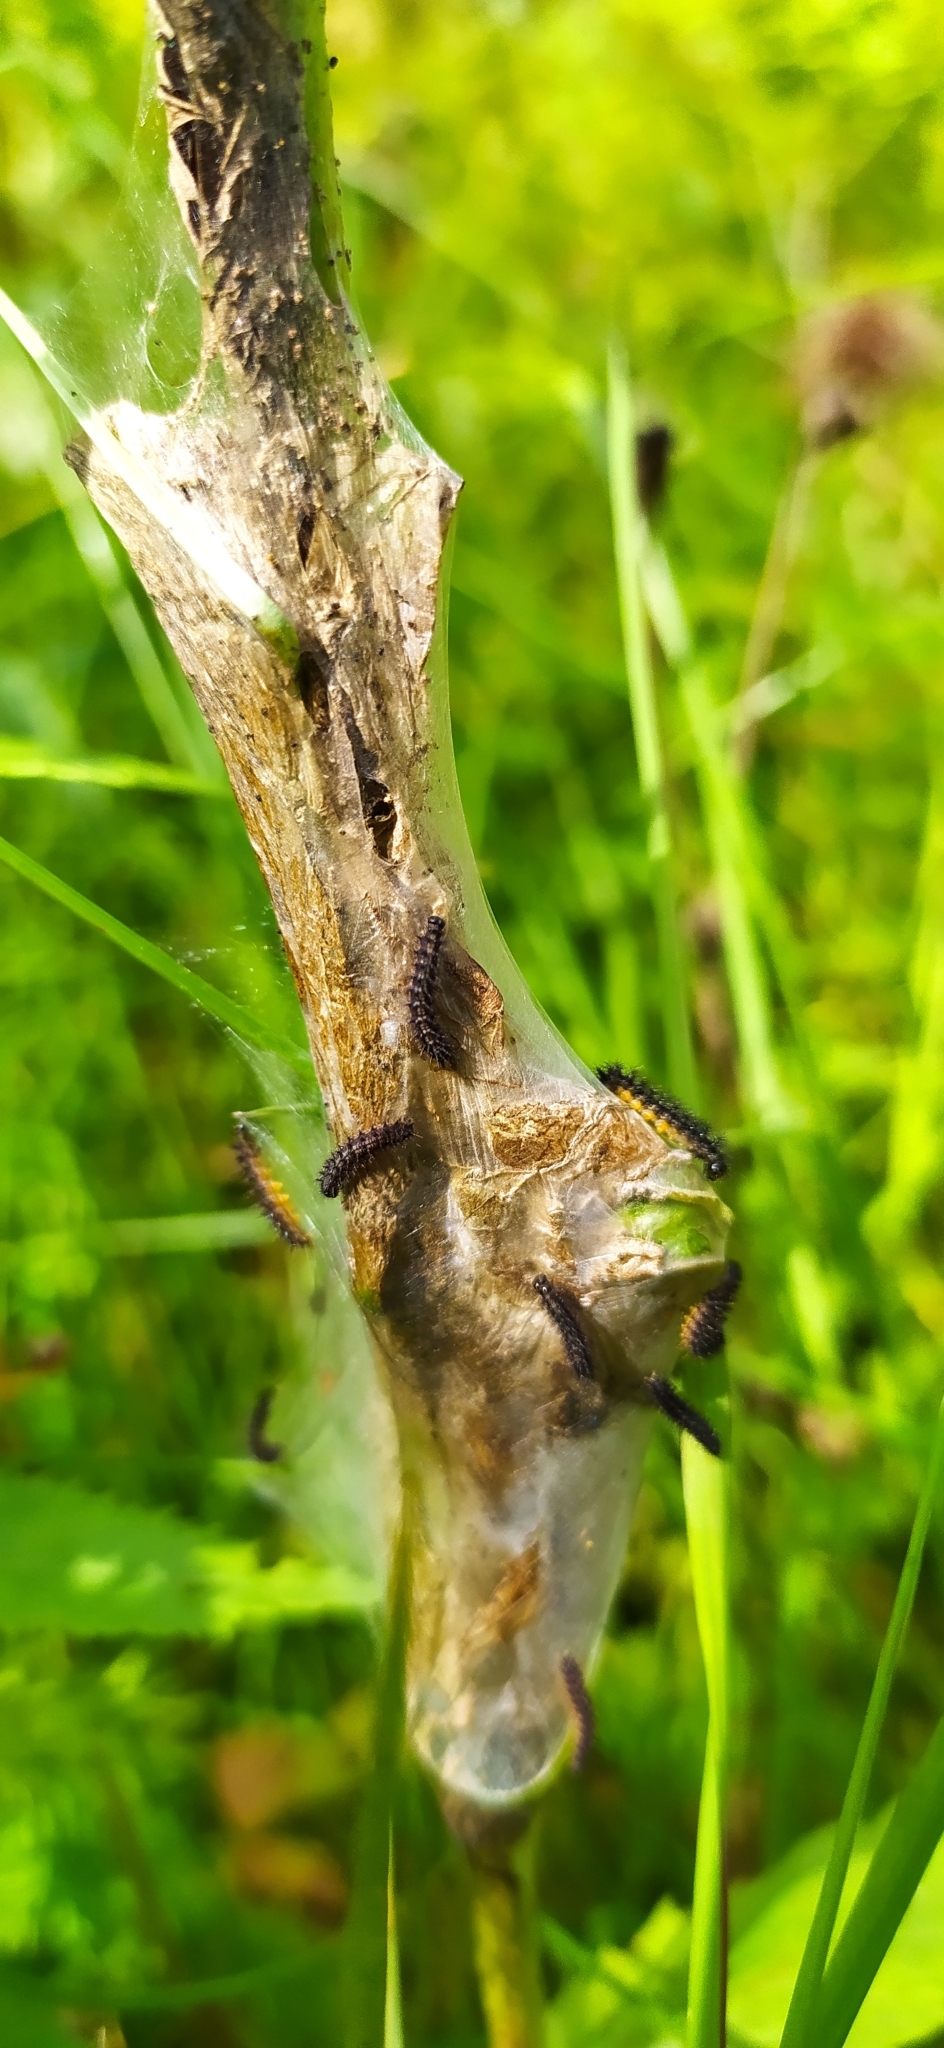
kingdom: Animalia
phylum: Arthropoda
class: Insecta
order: Lepidoptera
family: Nymphalidae
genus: Euphydryas
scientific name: Euphydryas maturna
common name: Scarce fritillary
